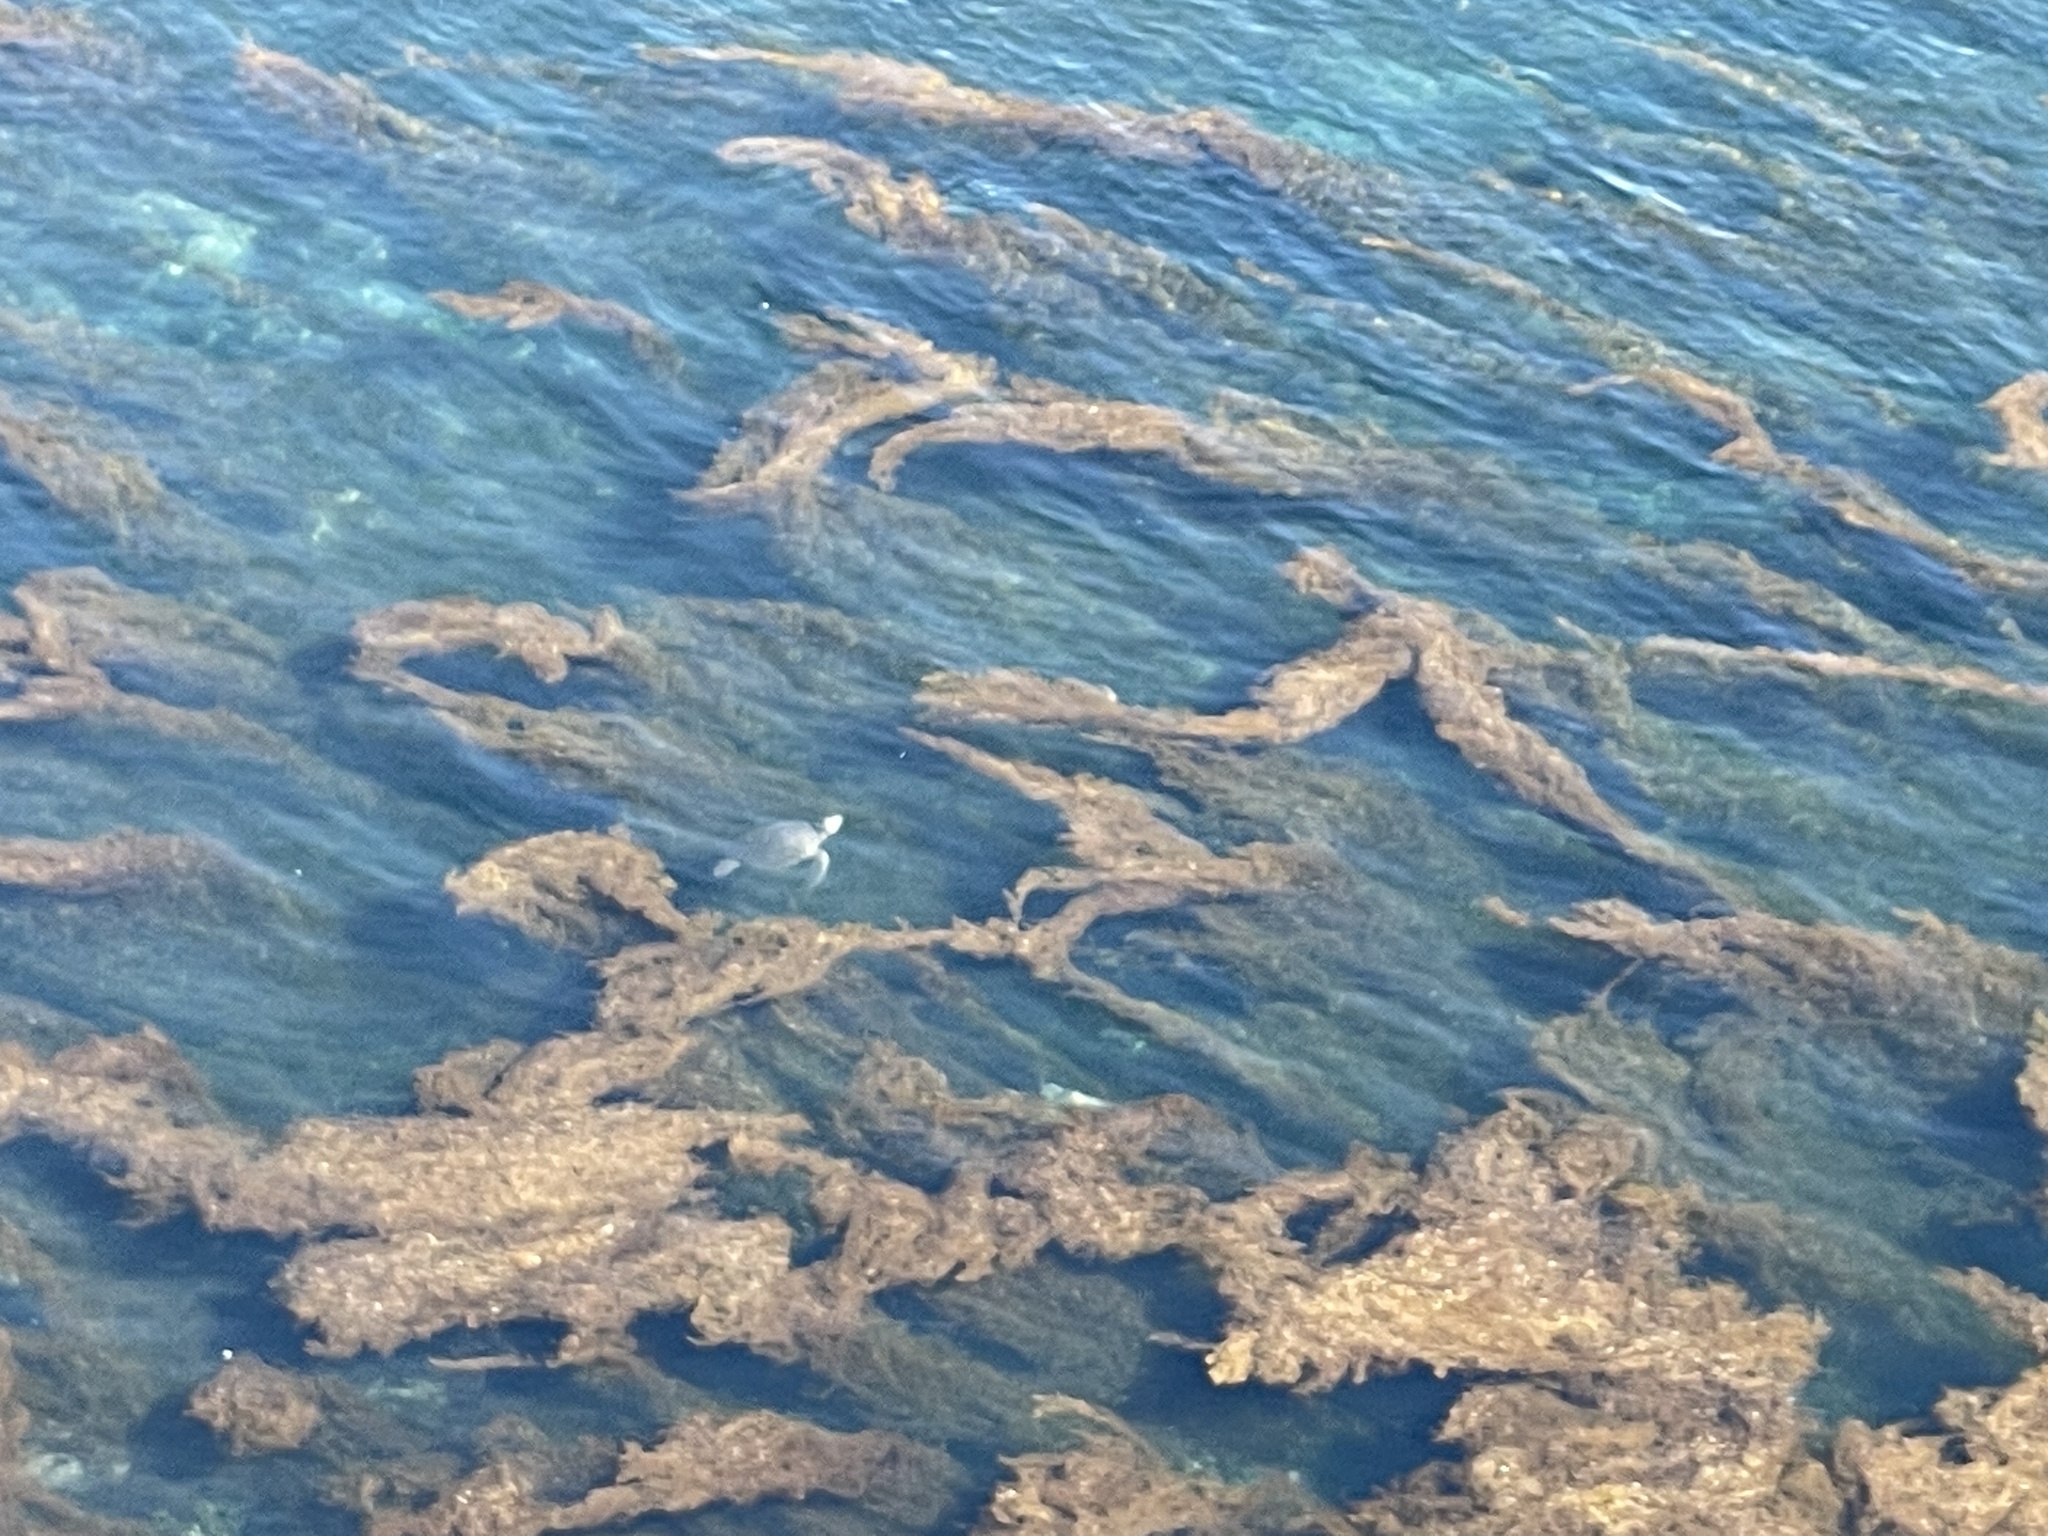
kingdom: Animalia
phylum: Chordata
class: Testudines
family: Cheloniidae
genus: Chelonia
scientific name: Chelonia mydas
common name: Green turtle
